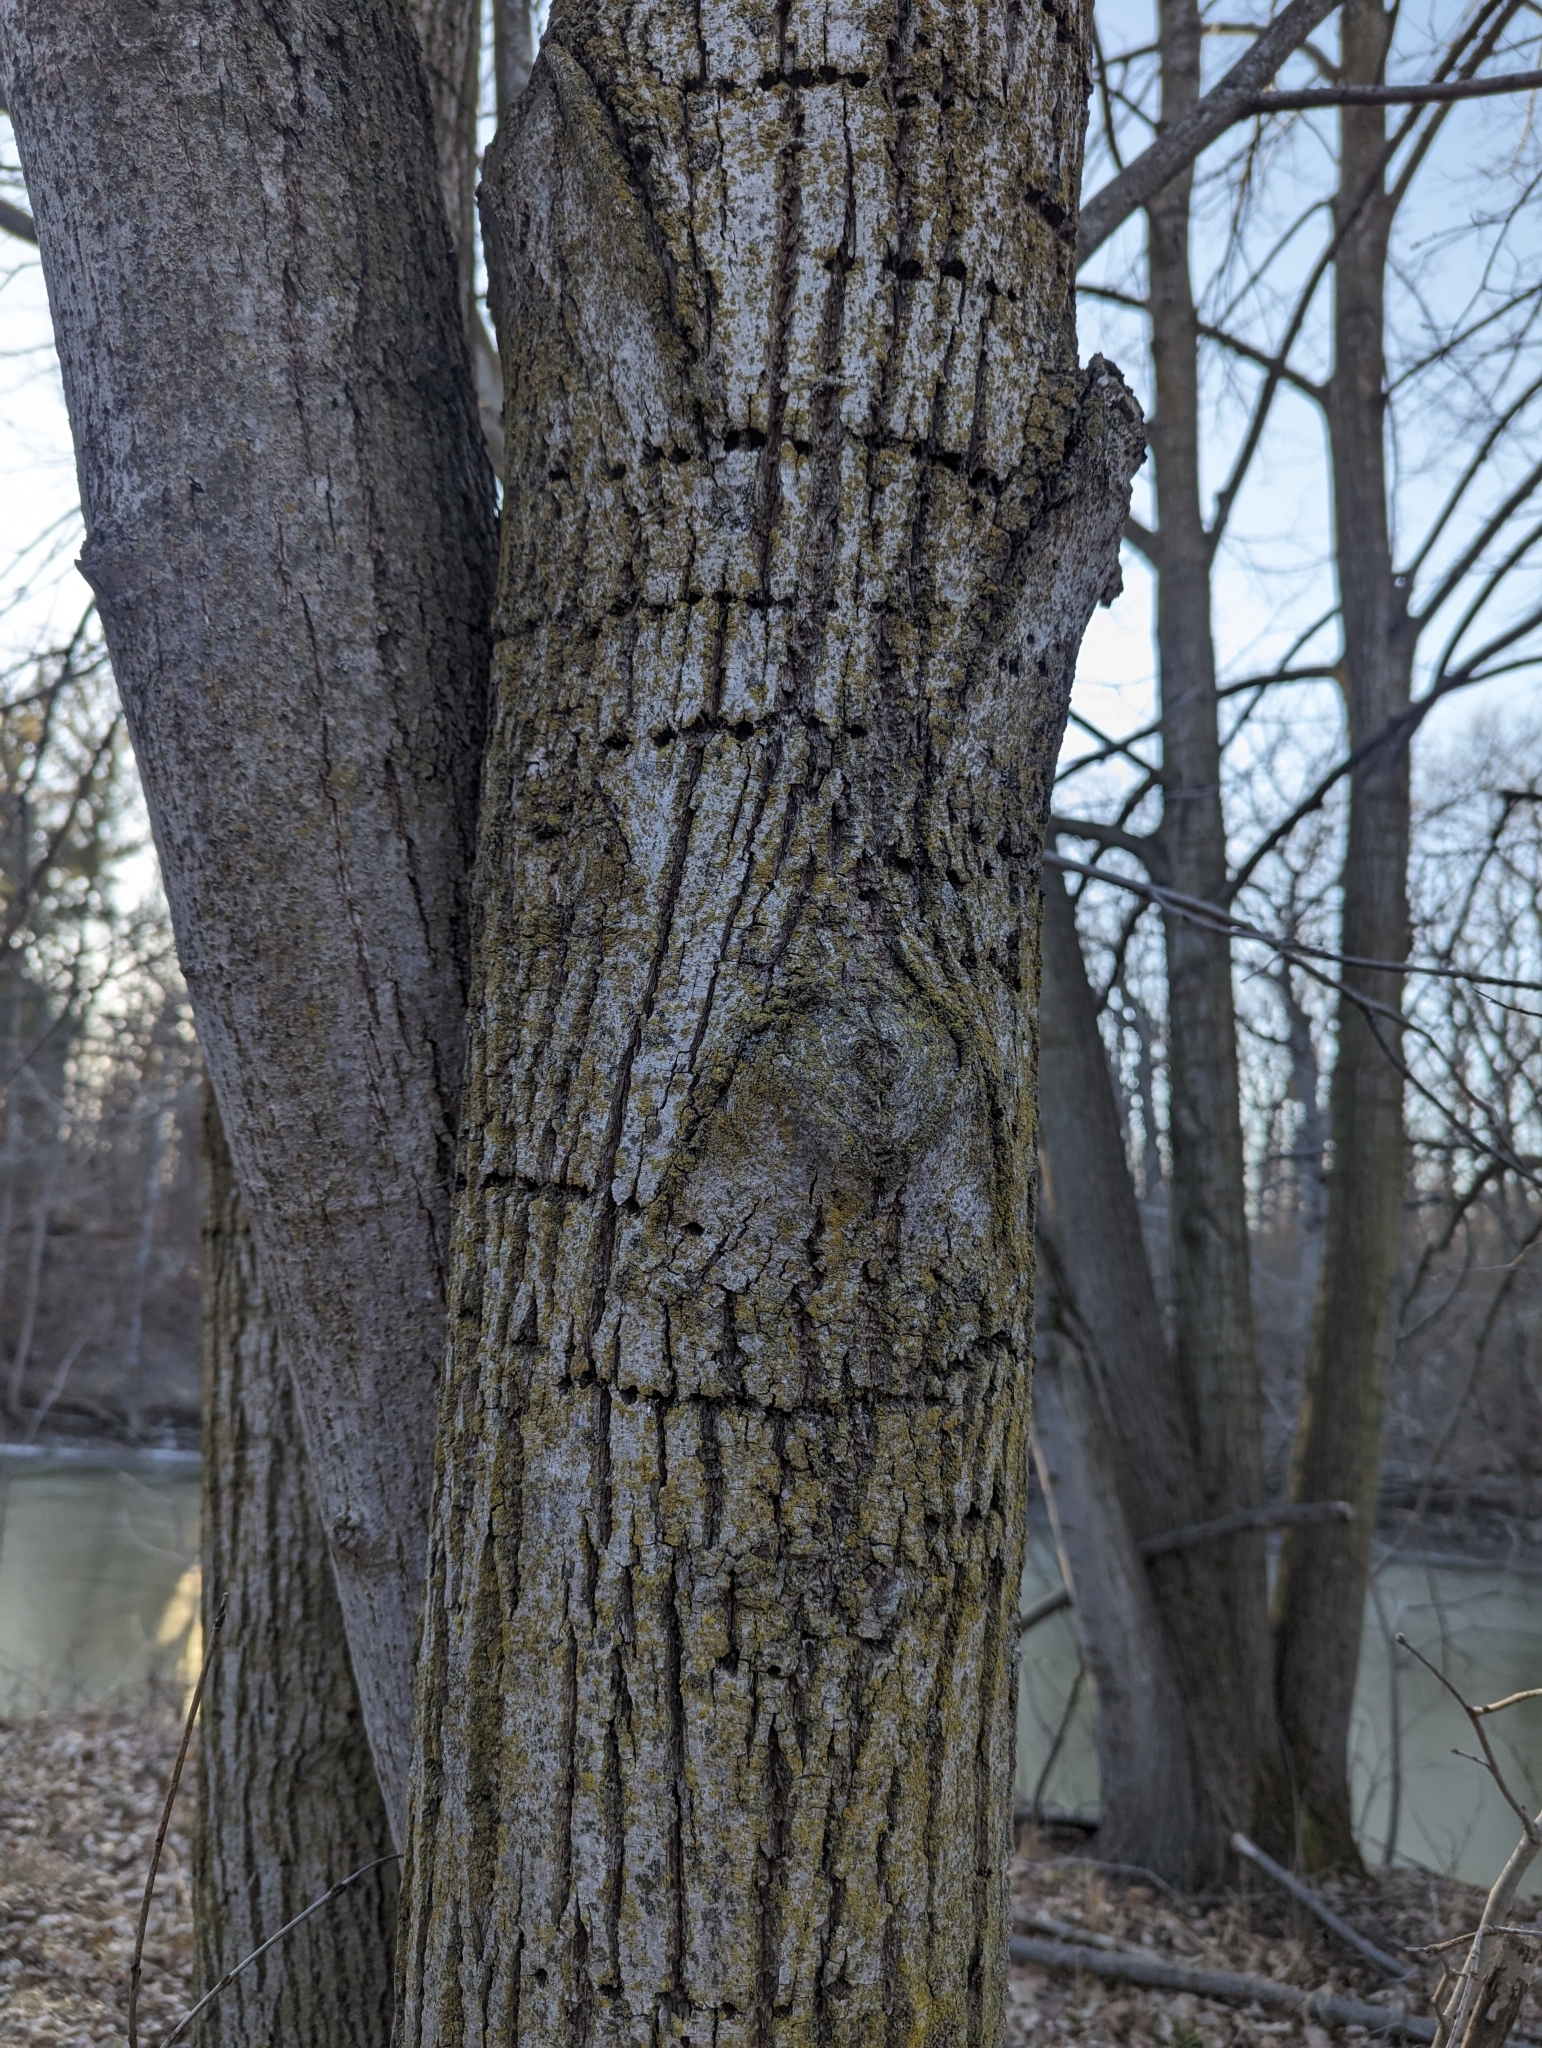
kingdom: Animalia
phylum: Chordata
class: Aves
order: Piciformes
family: Picidae
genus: Sphyrapicus
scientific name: Sphyrapicus varius
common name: Yellow-bellied sapsucker
